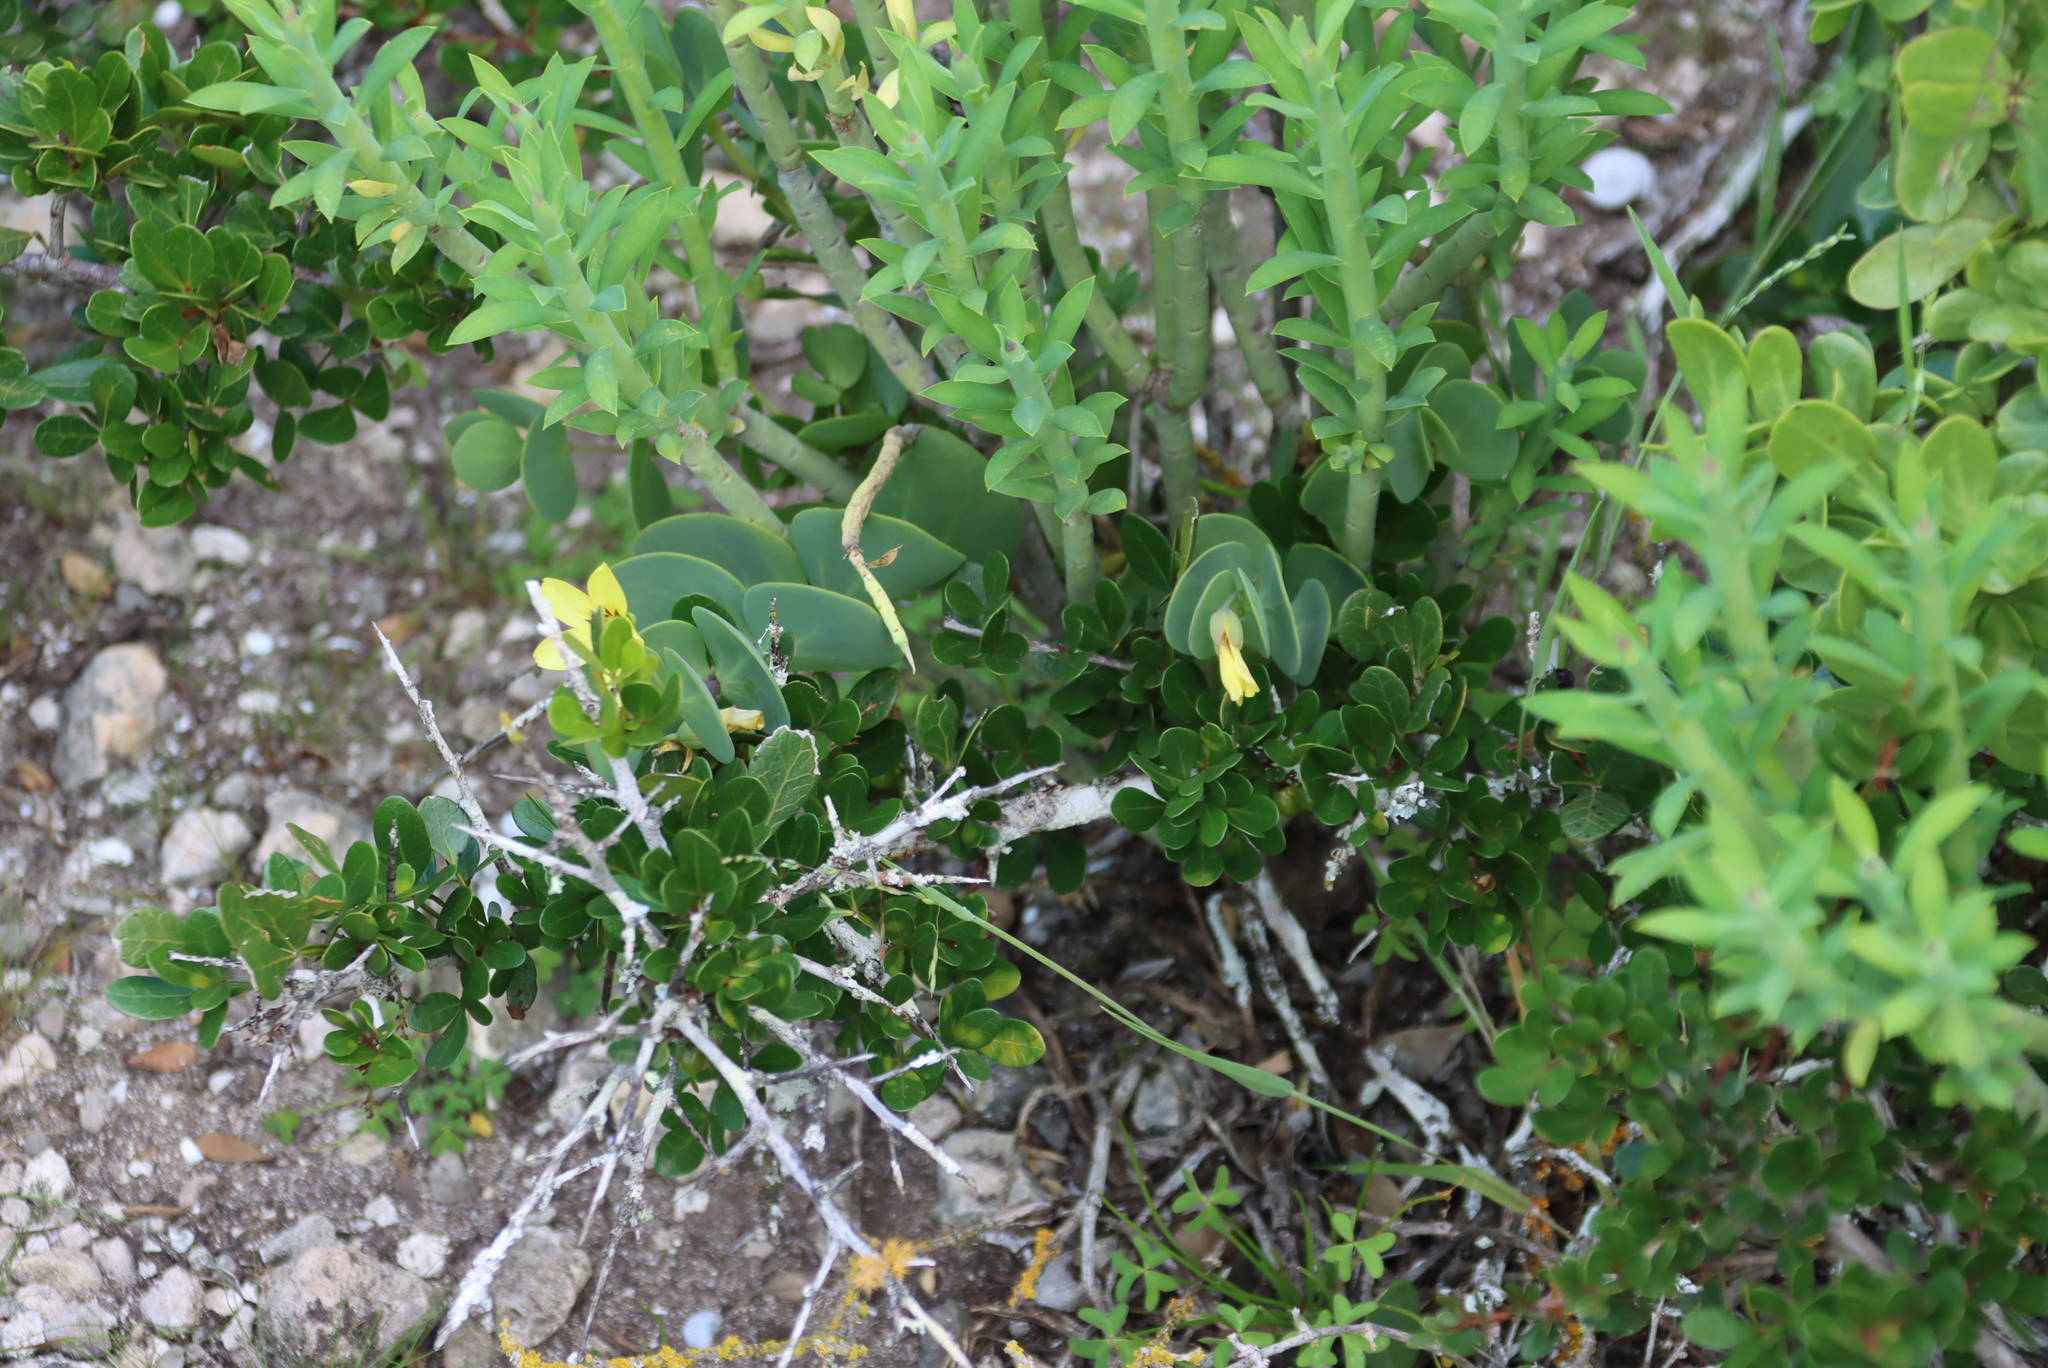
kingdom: Plantae
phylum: Tracheophyta
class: Magnoliopsida
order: Zygophyllales
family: Zygophyllaceae
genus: Roepera
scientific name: Roepera cordifolia
